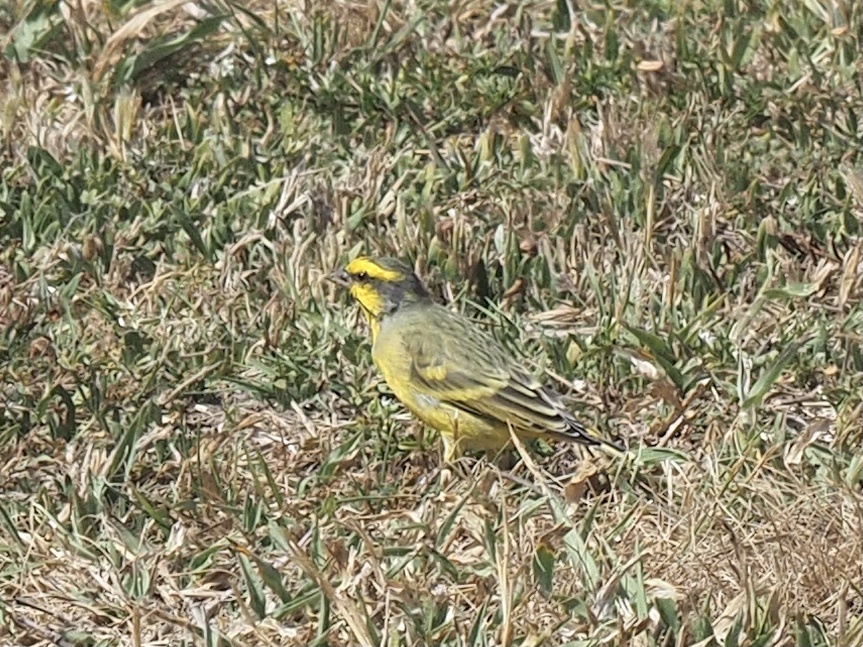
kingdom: Animalia
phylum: Chordata
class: Aves
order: Passeriformes
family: Fringillidae
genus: Crithagra
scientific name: Crithagra mozambica
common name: Yellow-fronted canary
